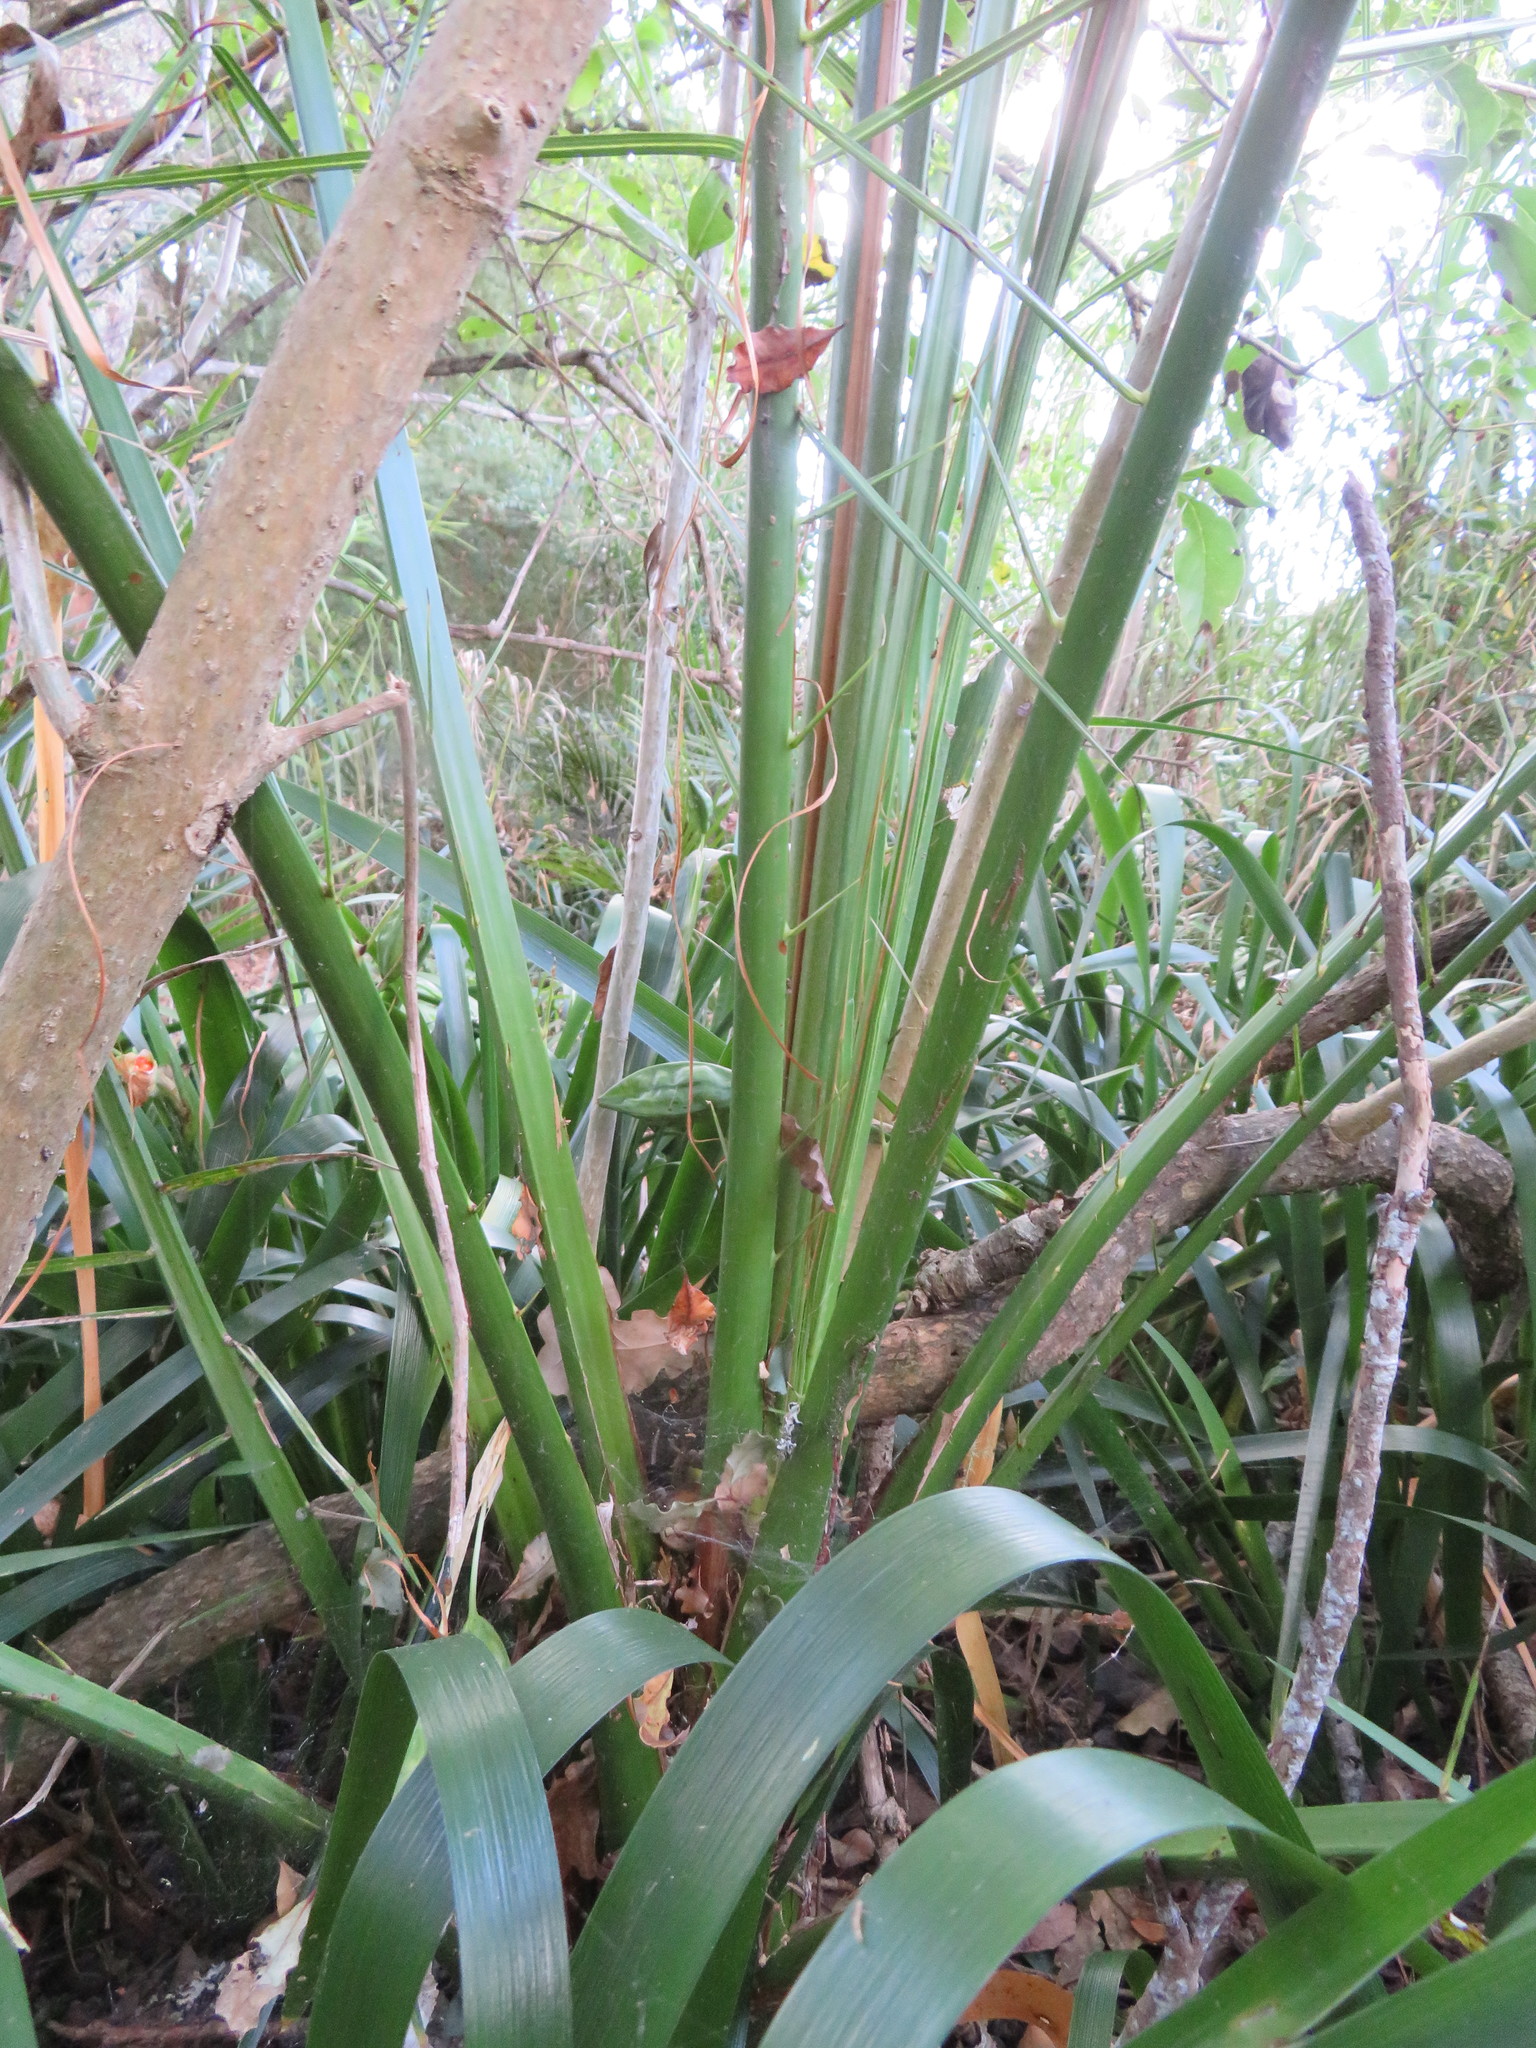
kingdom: Plantae
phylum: Tracheophyta
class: Liliopsida
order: Arecales
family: Arecaceae
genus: Phoenix
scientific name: Phoenix canariensis
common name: Canary island date palm
